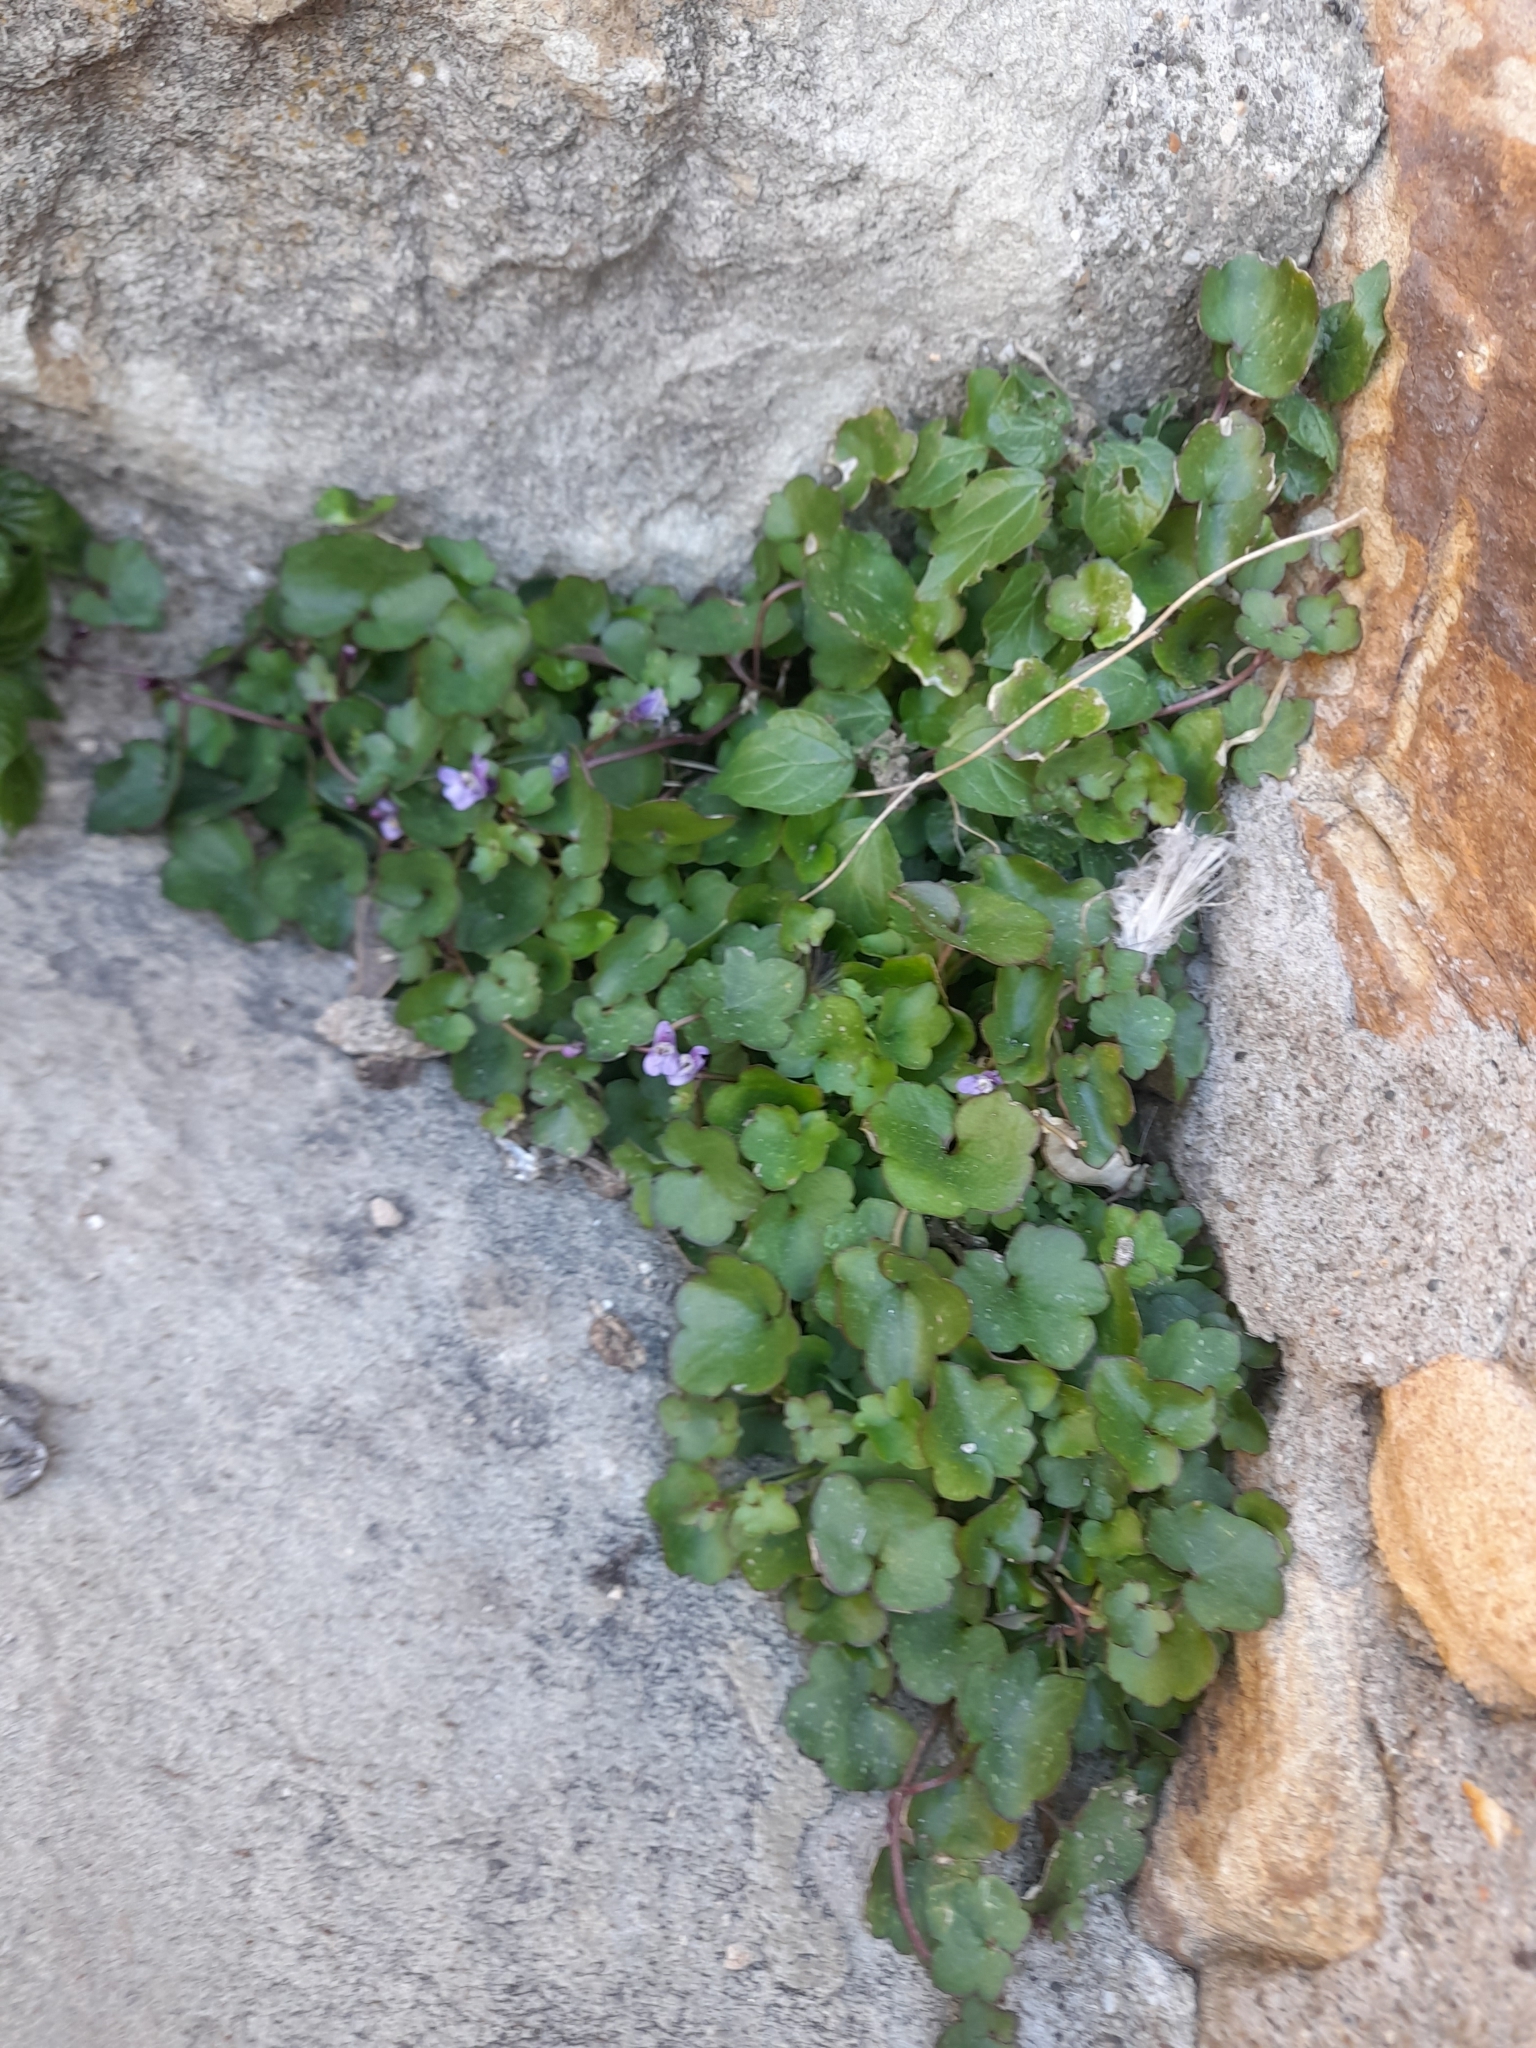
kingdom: Plantae
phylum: Tracheophyta
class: Magnoliopsida
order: Lamiales
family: Plantaginaceae
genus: Cymbalaria
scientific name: Cymbalaria muralis
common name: Ivy-leaved toadflax
